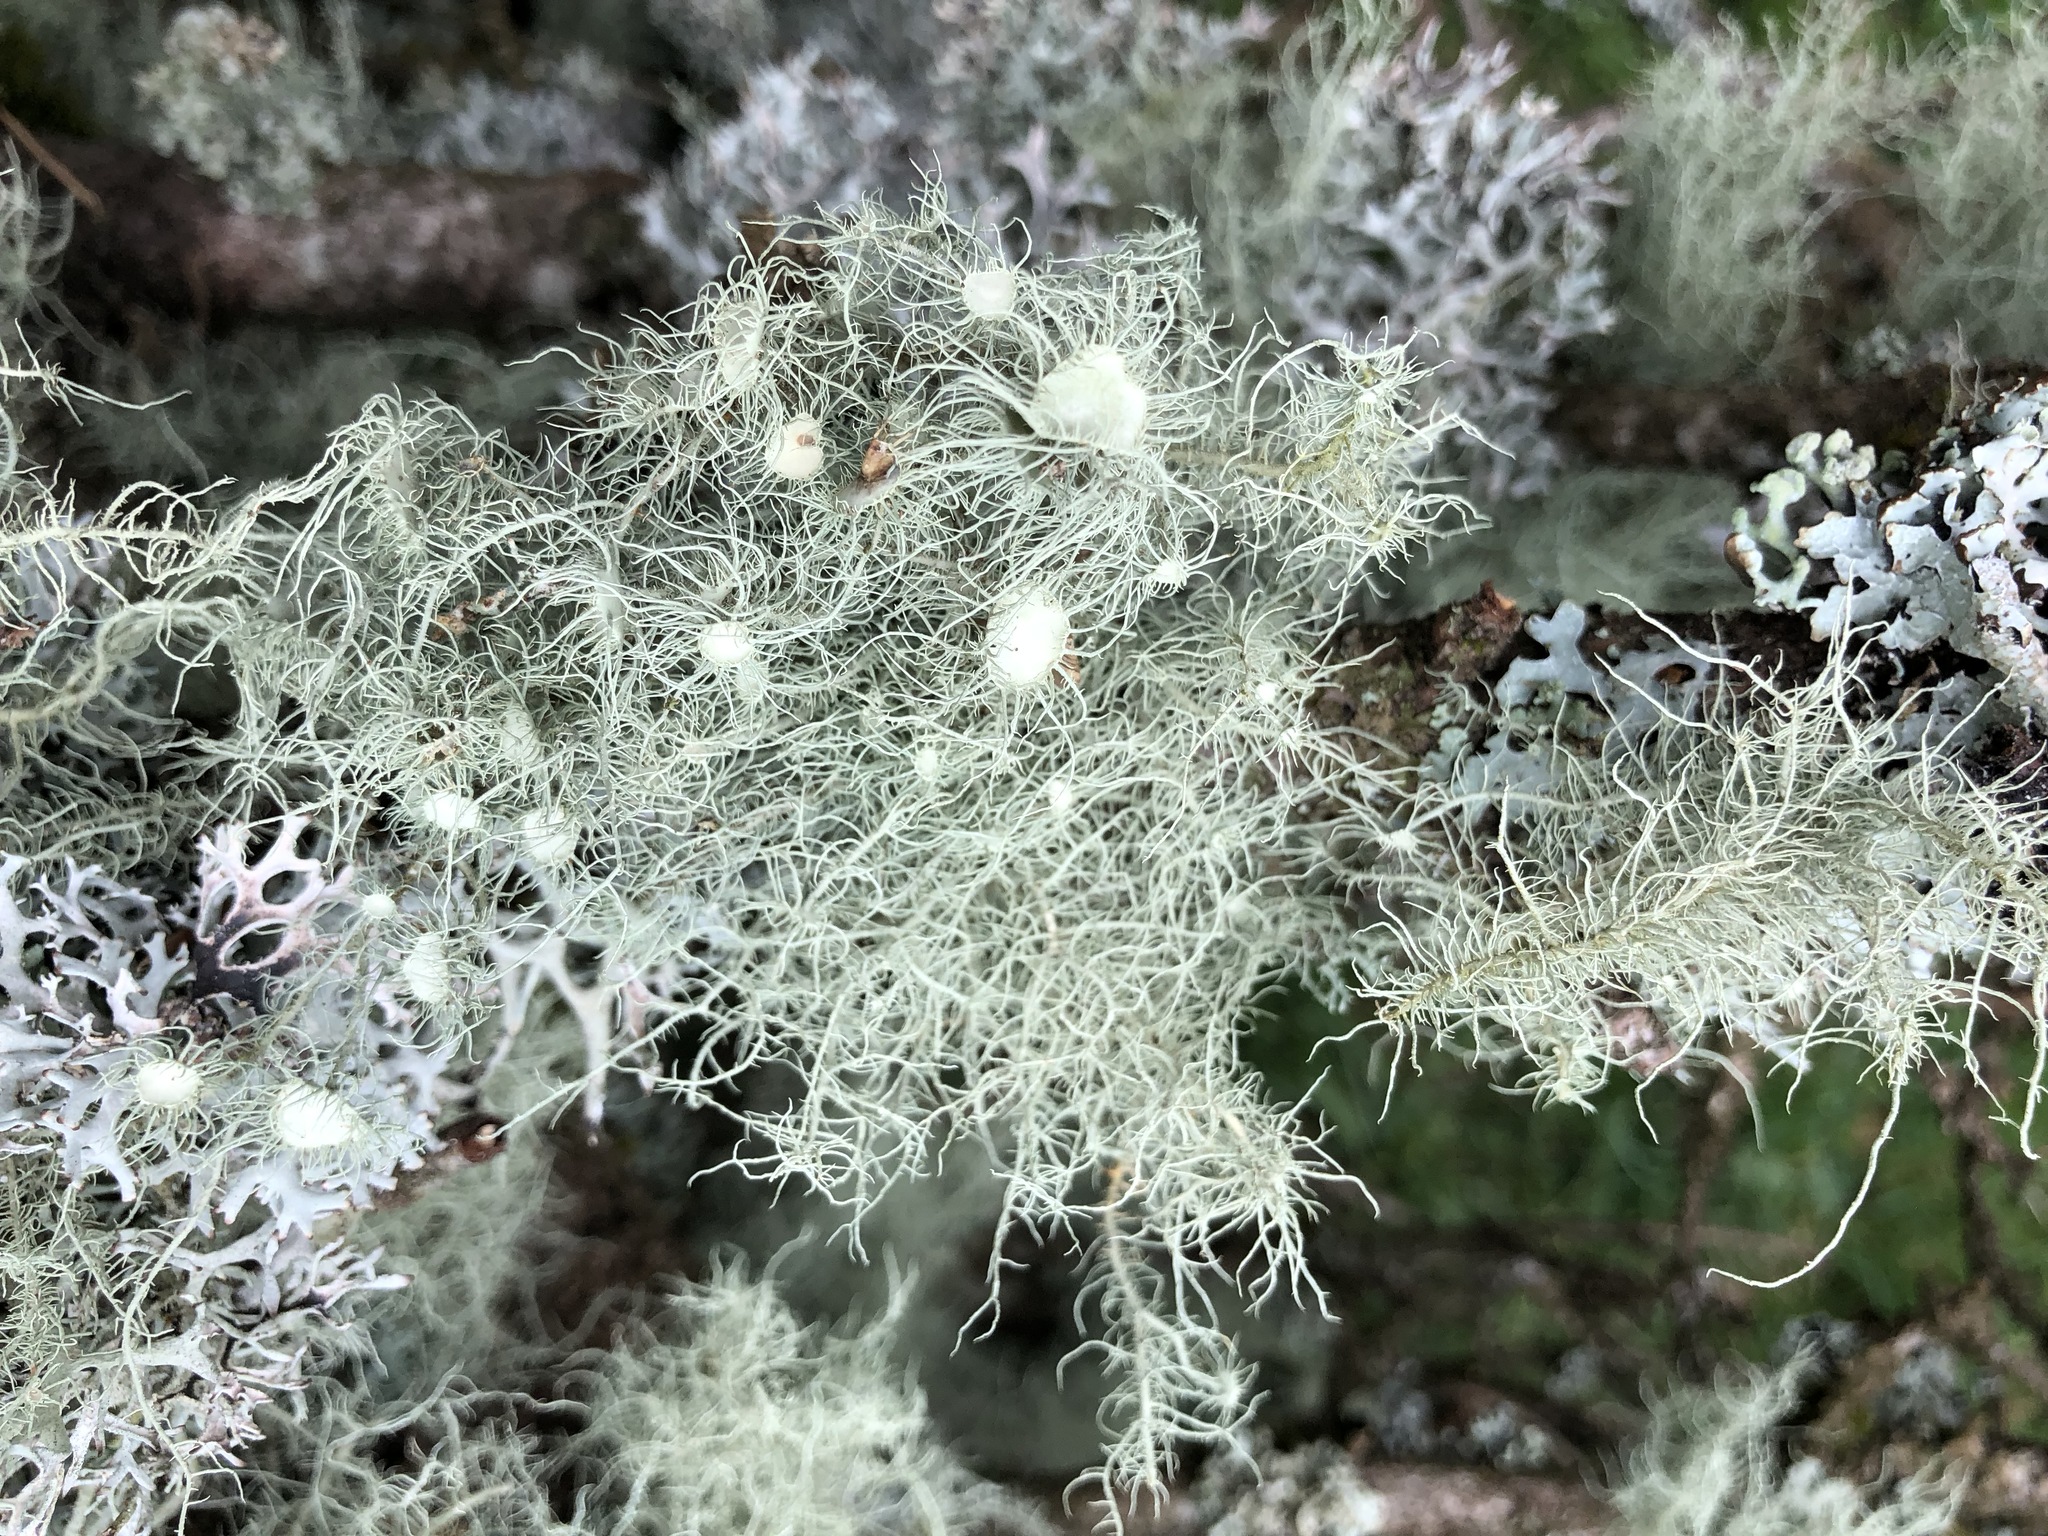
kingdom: Fungi
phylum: Ascomycota
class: Lecanoromycetes
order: Lecanorales
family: Parmeliaceae
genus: Usnea
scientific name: Usnea florida
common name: Witches' whiskers lichen
